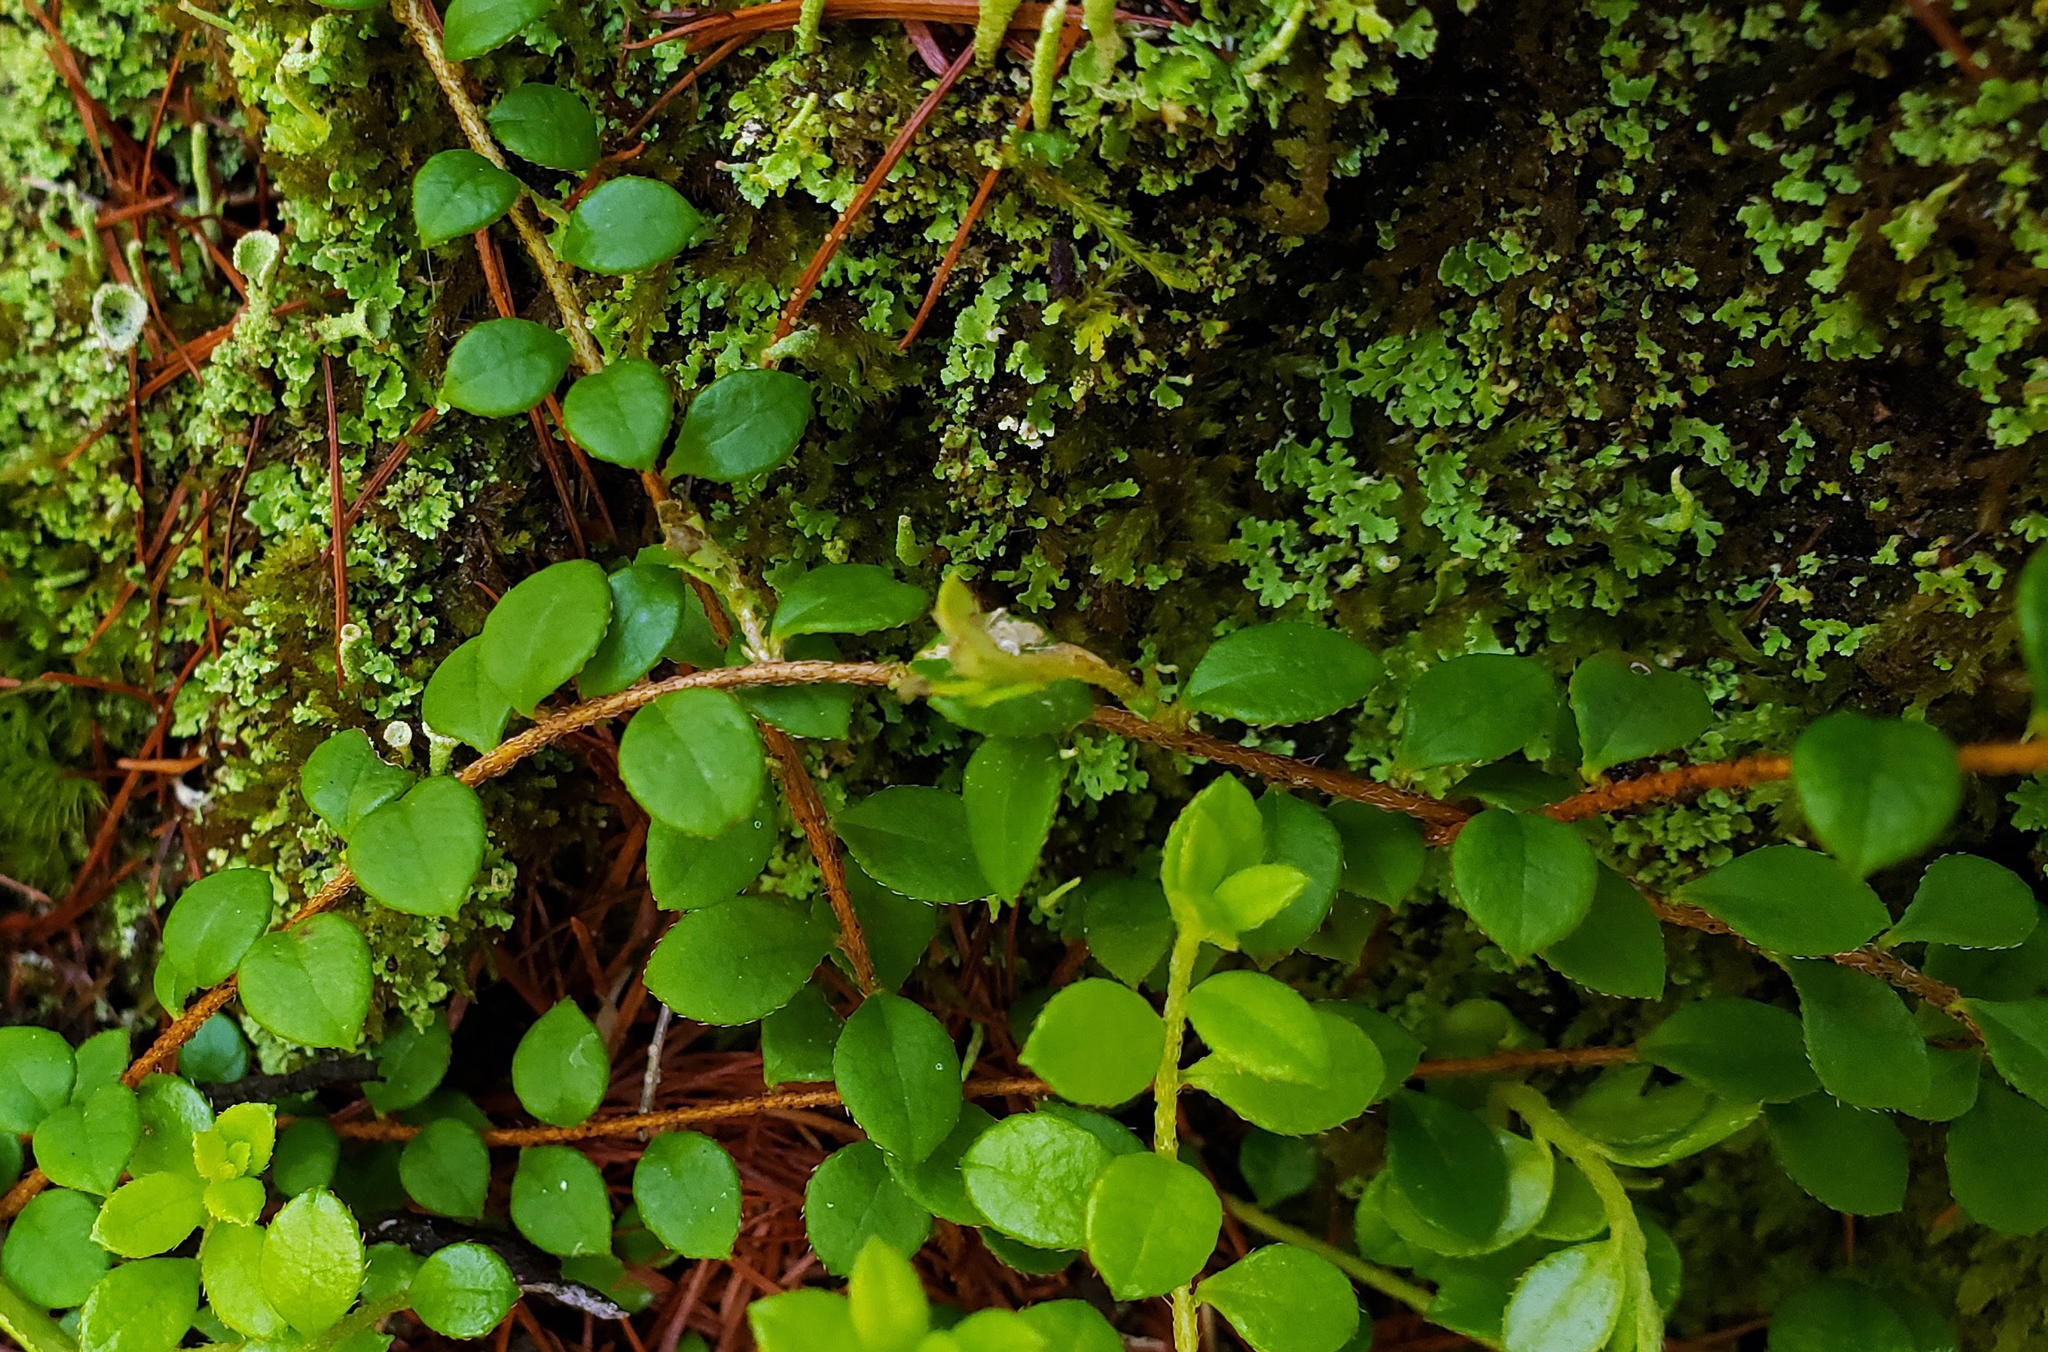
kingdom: Plantae
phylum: Tracheophyta
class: Magnoliopsida
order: Ericales
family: Ericaceae
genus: Gaultheria
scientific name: Gaultheria hispidula
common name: Cancer wintergreen
